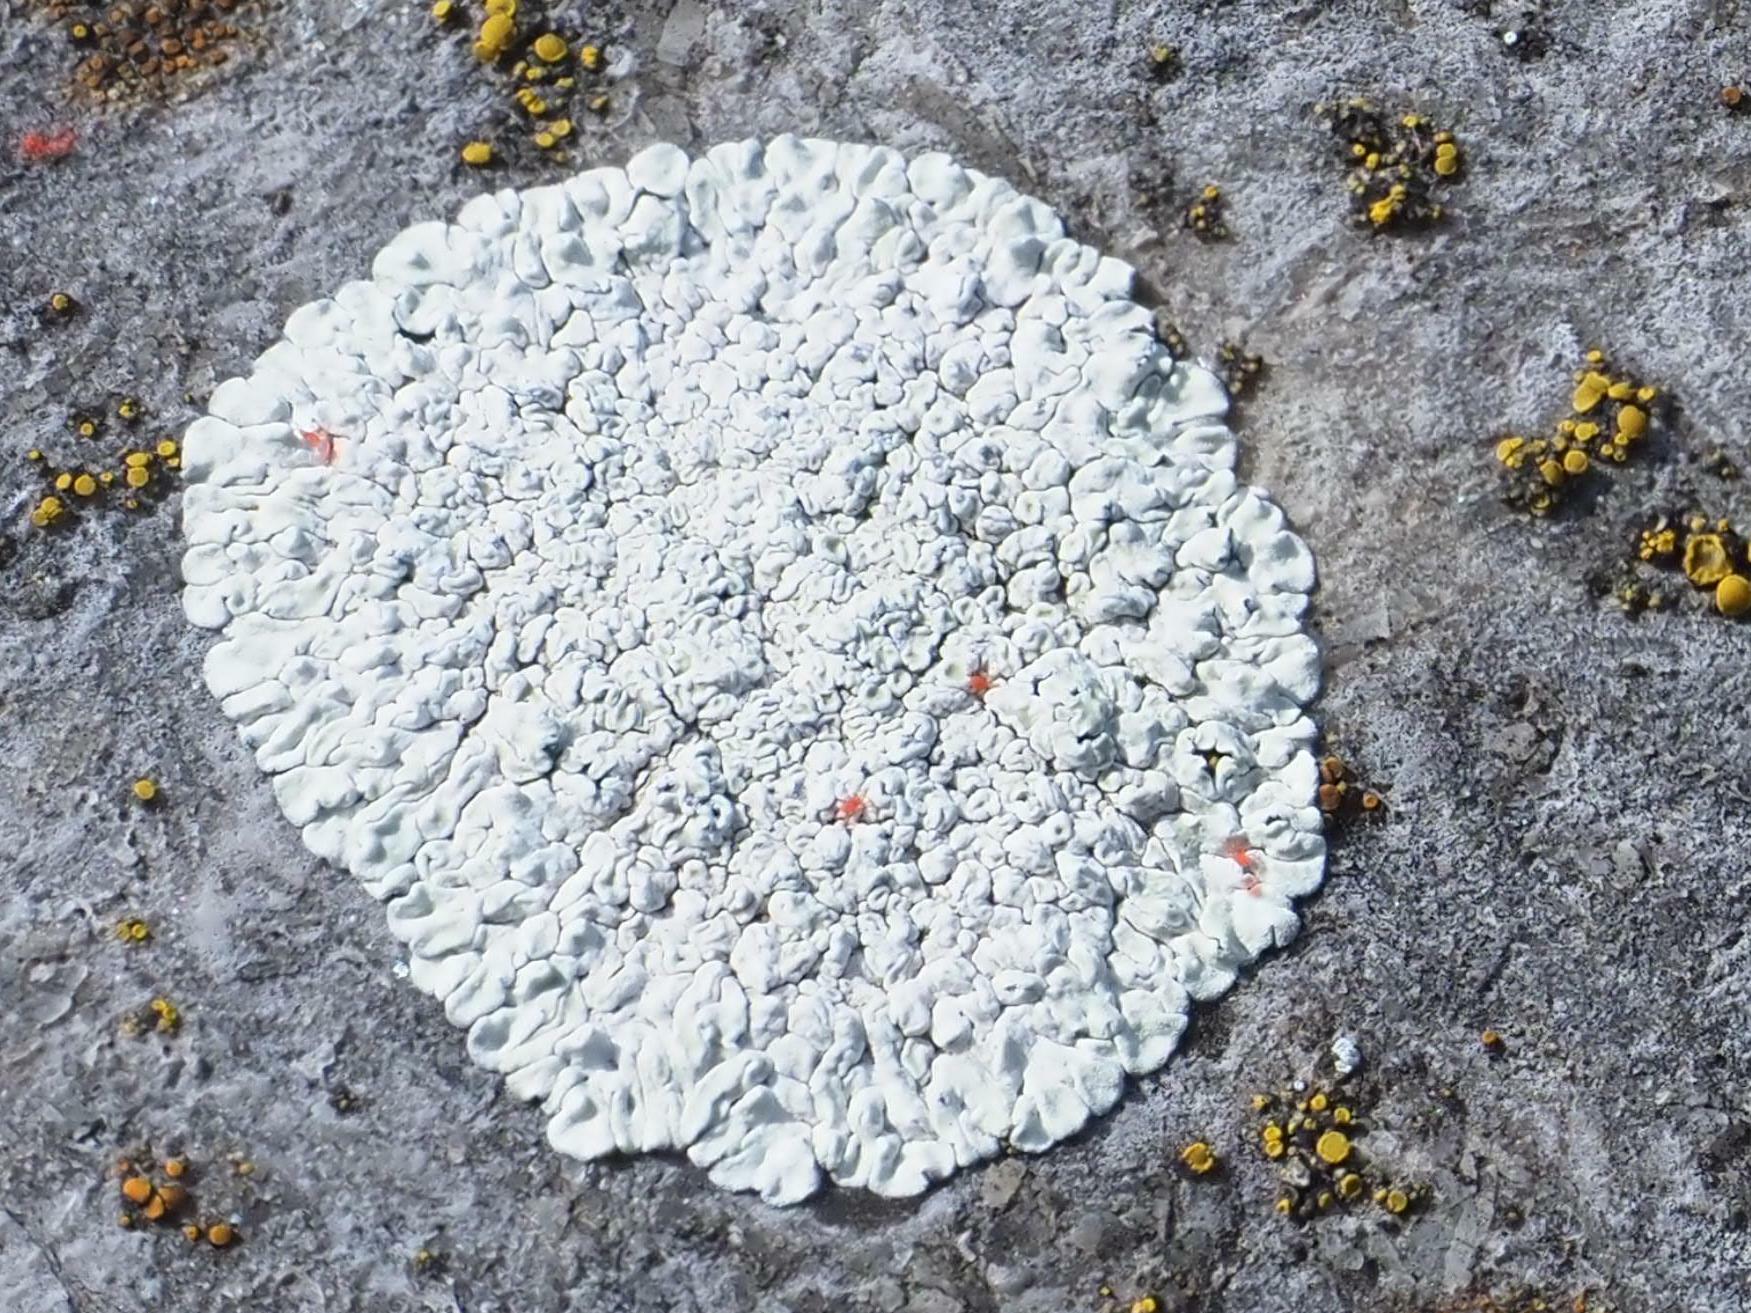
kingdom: Fungi
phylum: Ascomycota
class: Lecanoromycetes
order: Lecanorales
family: Lecanoraceae
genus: Protoparmeliopsis
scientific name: Protoparmeliopsis muralis
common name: Stonewall rim lichen
